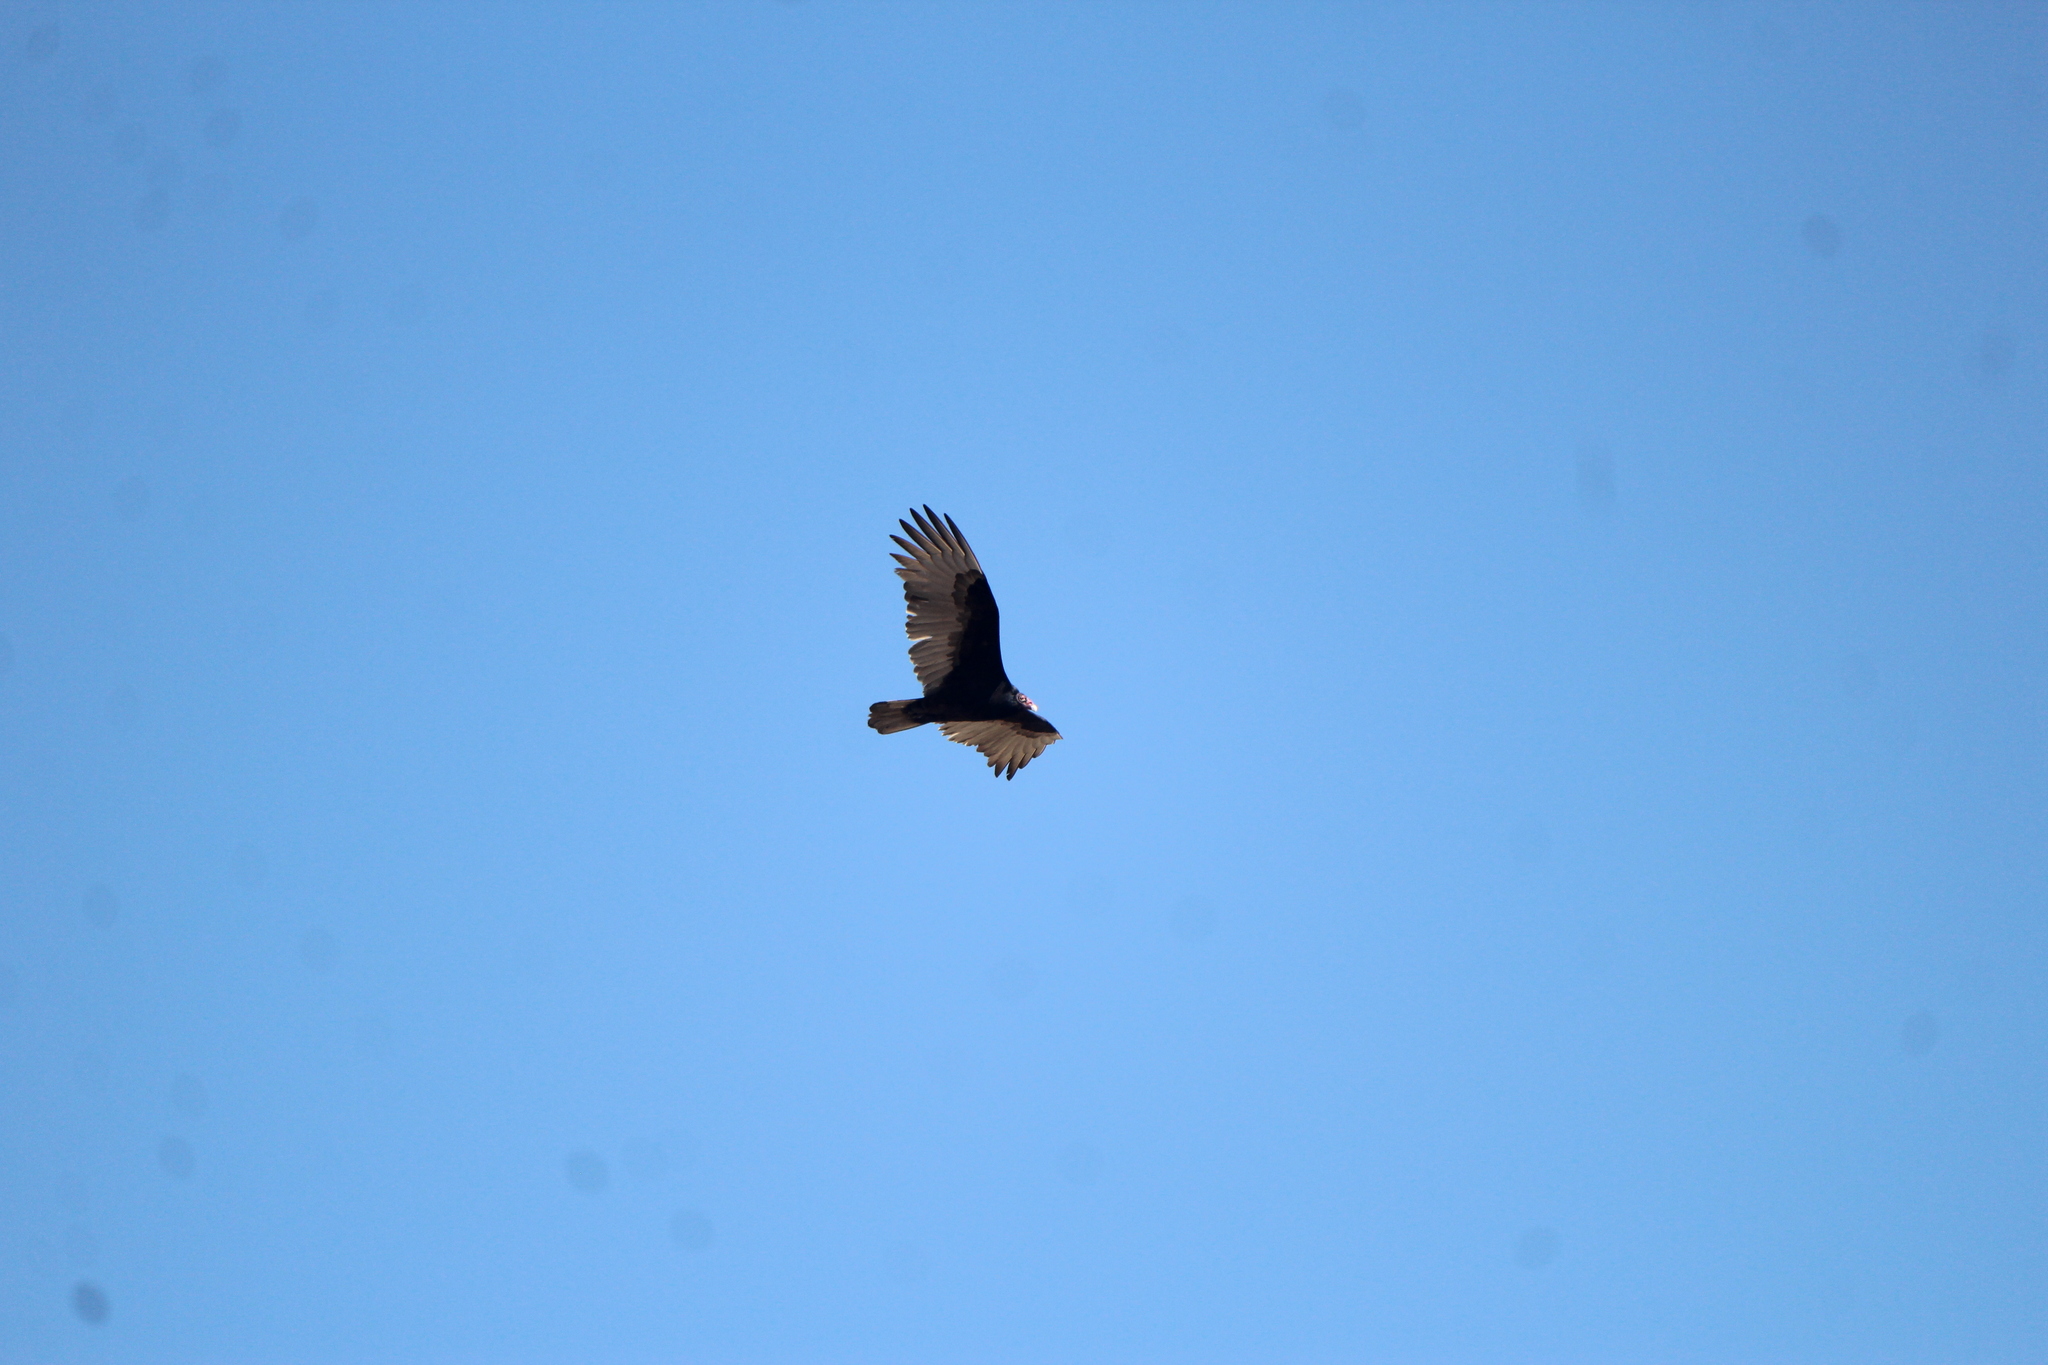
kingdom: Animalia
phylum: Chordata
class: Aves
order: Accipitriformes
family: Cathartidae
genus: Cathartes
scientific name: Cathartes aura
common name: Turkey vulture
